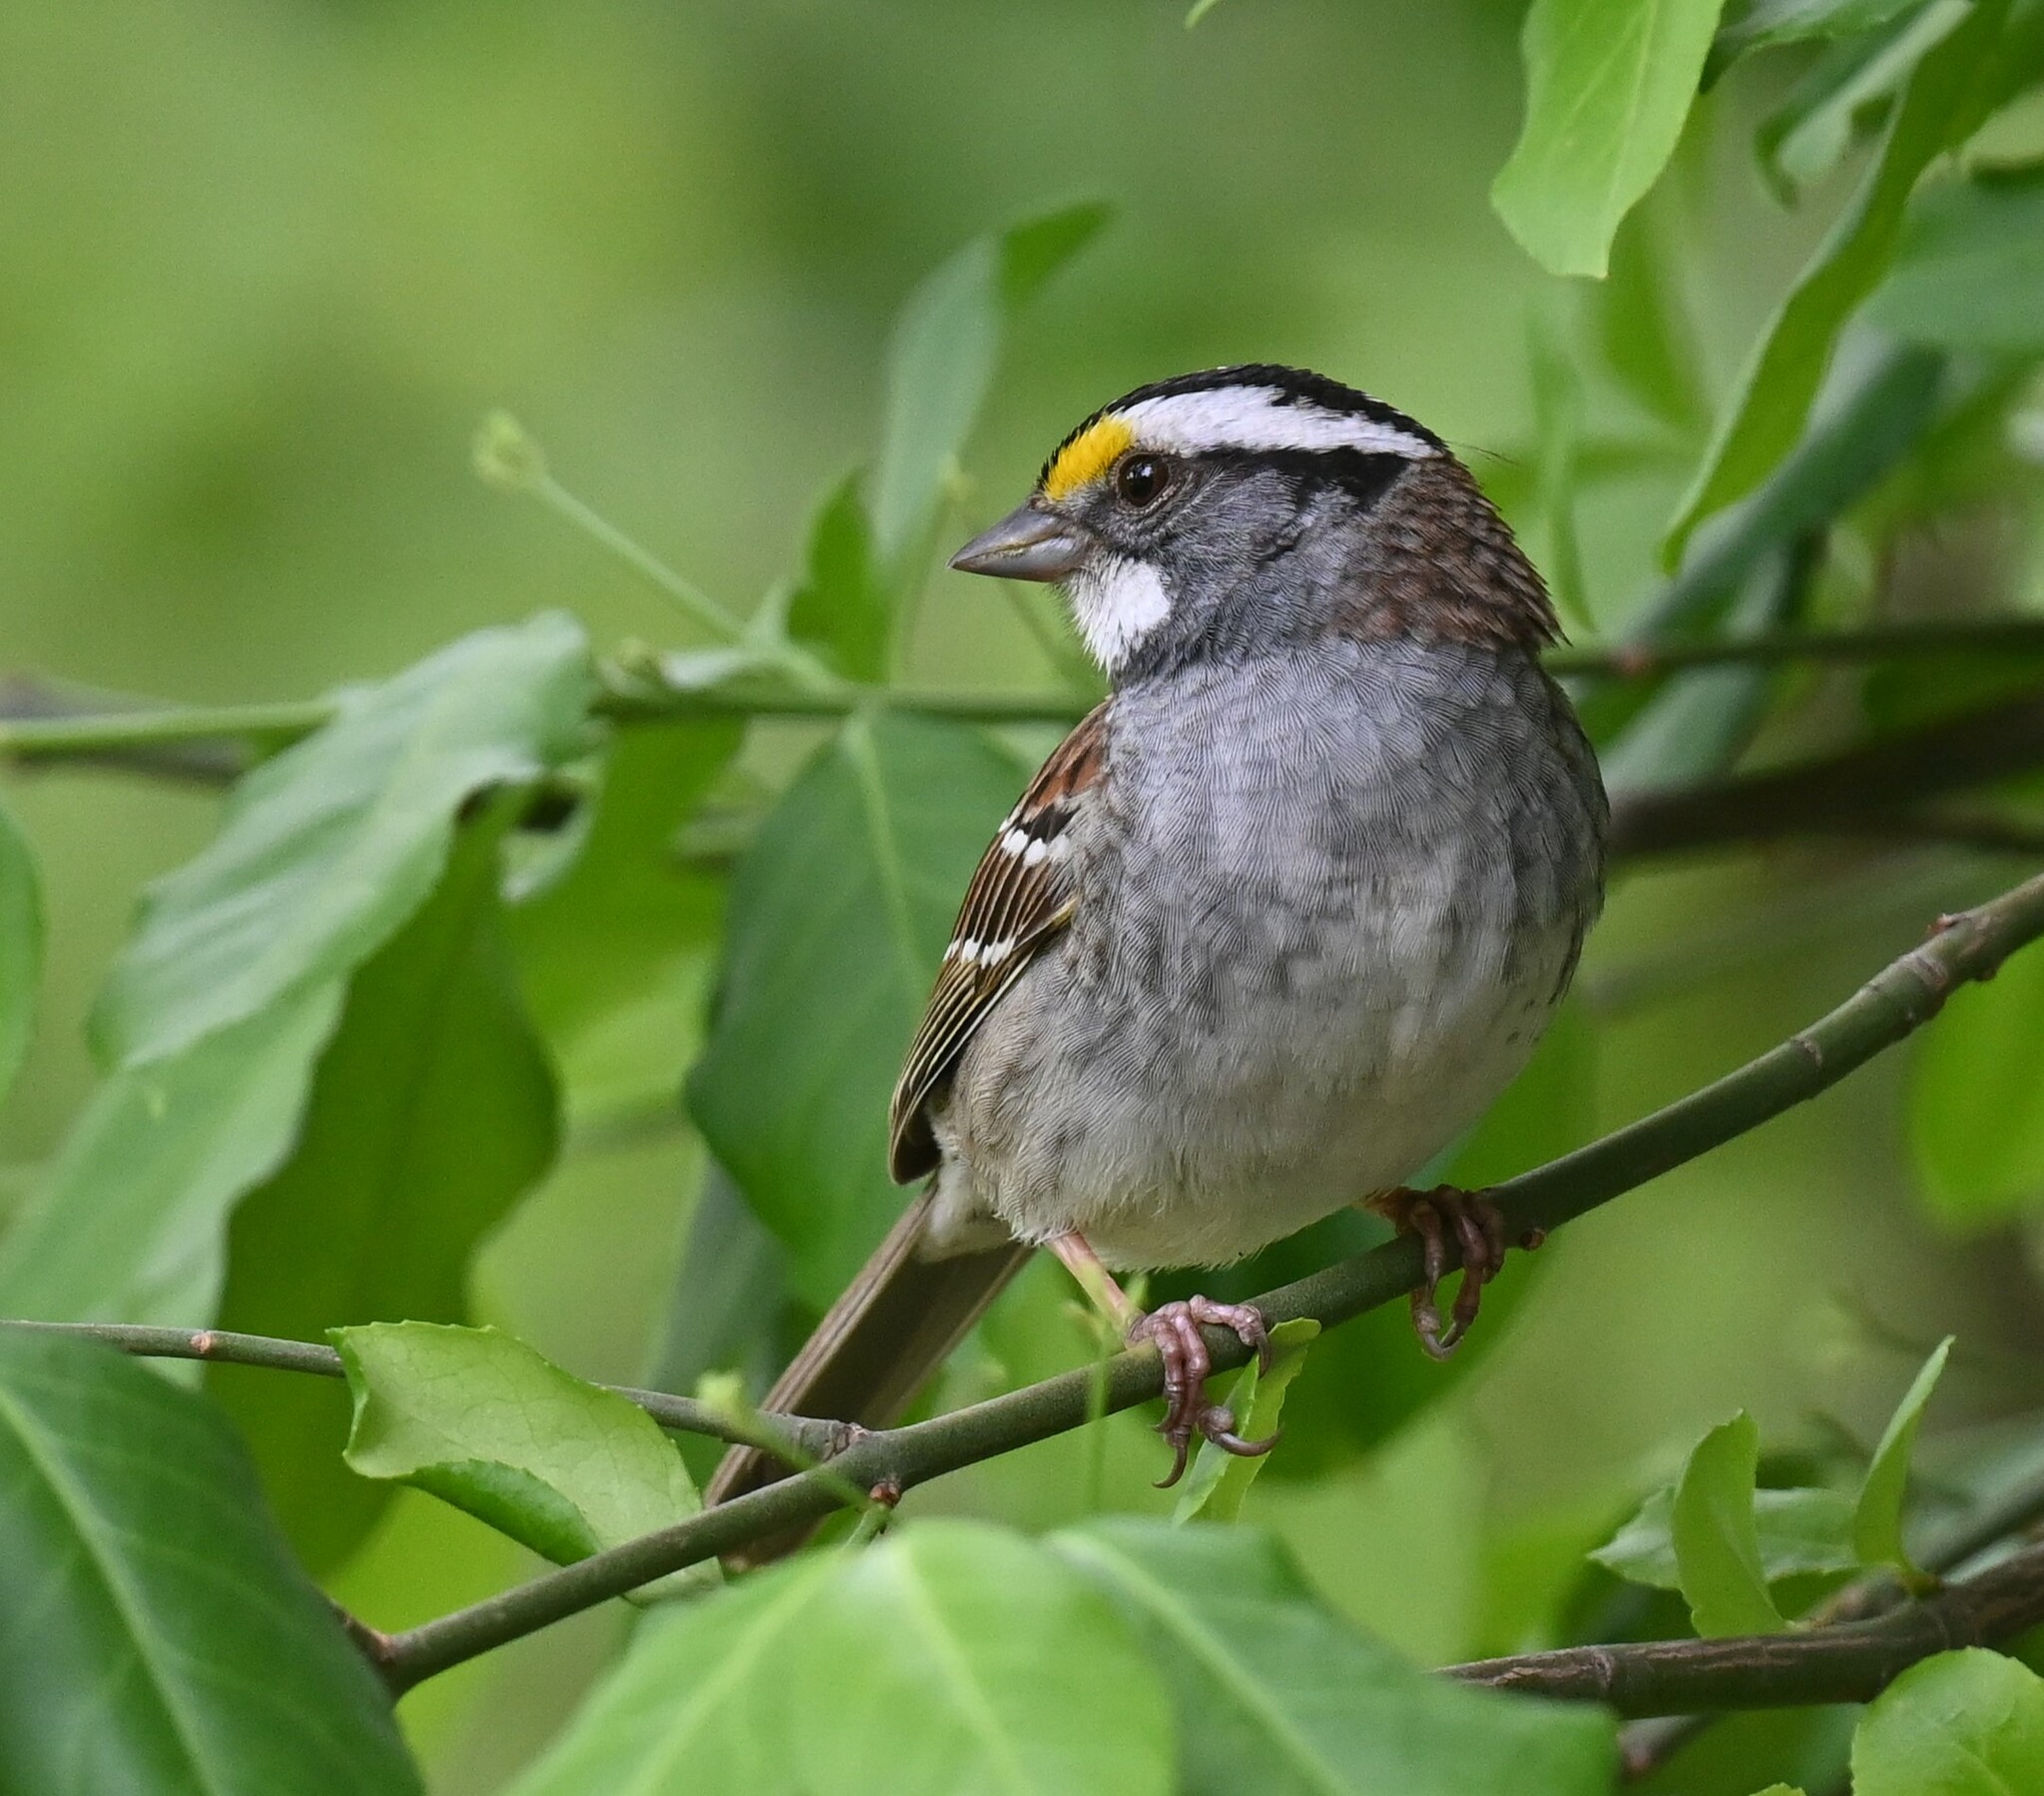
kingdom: Animalia
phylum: Chordata
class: Aves
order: Passeriformes
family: Passerellidae
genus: Zonotrichia
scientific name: Zonotrichia albicollis
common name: White-throated sparrow
